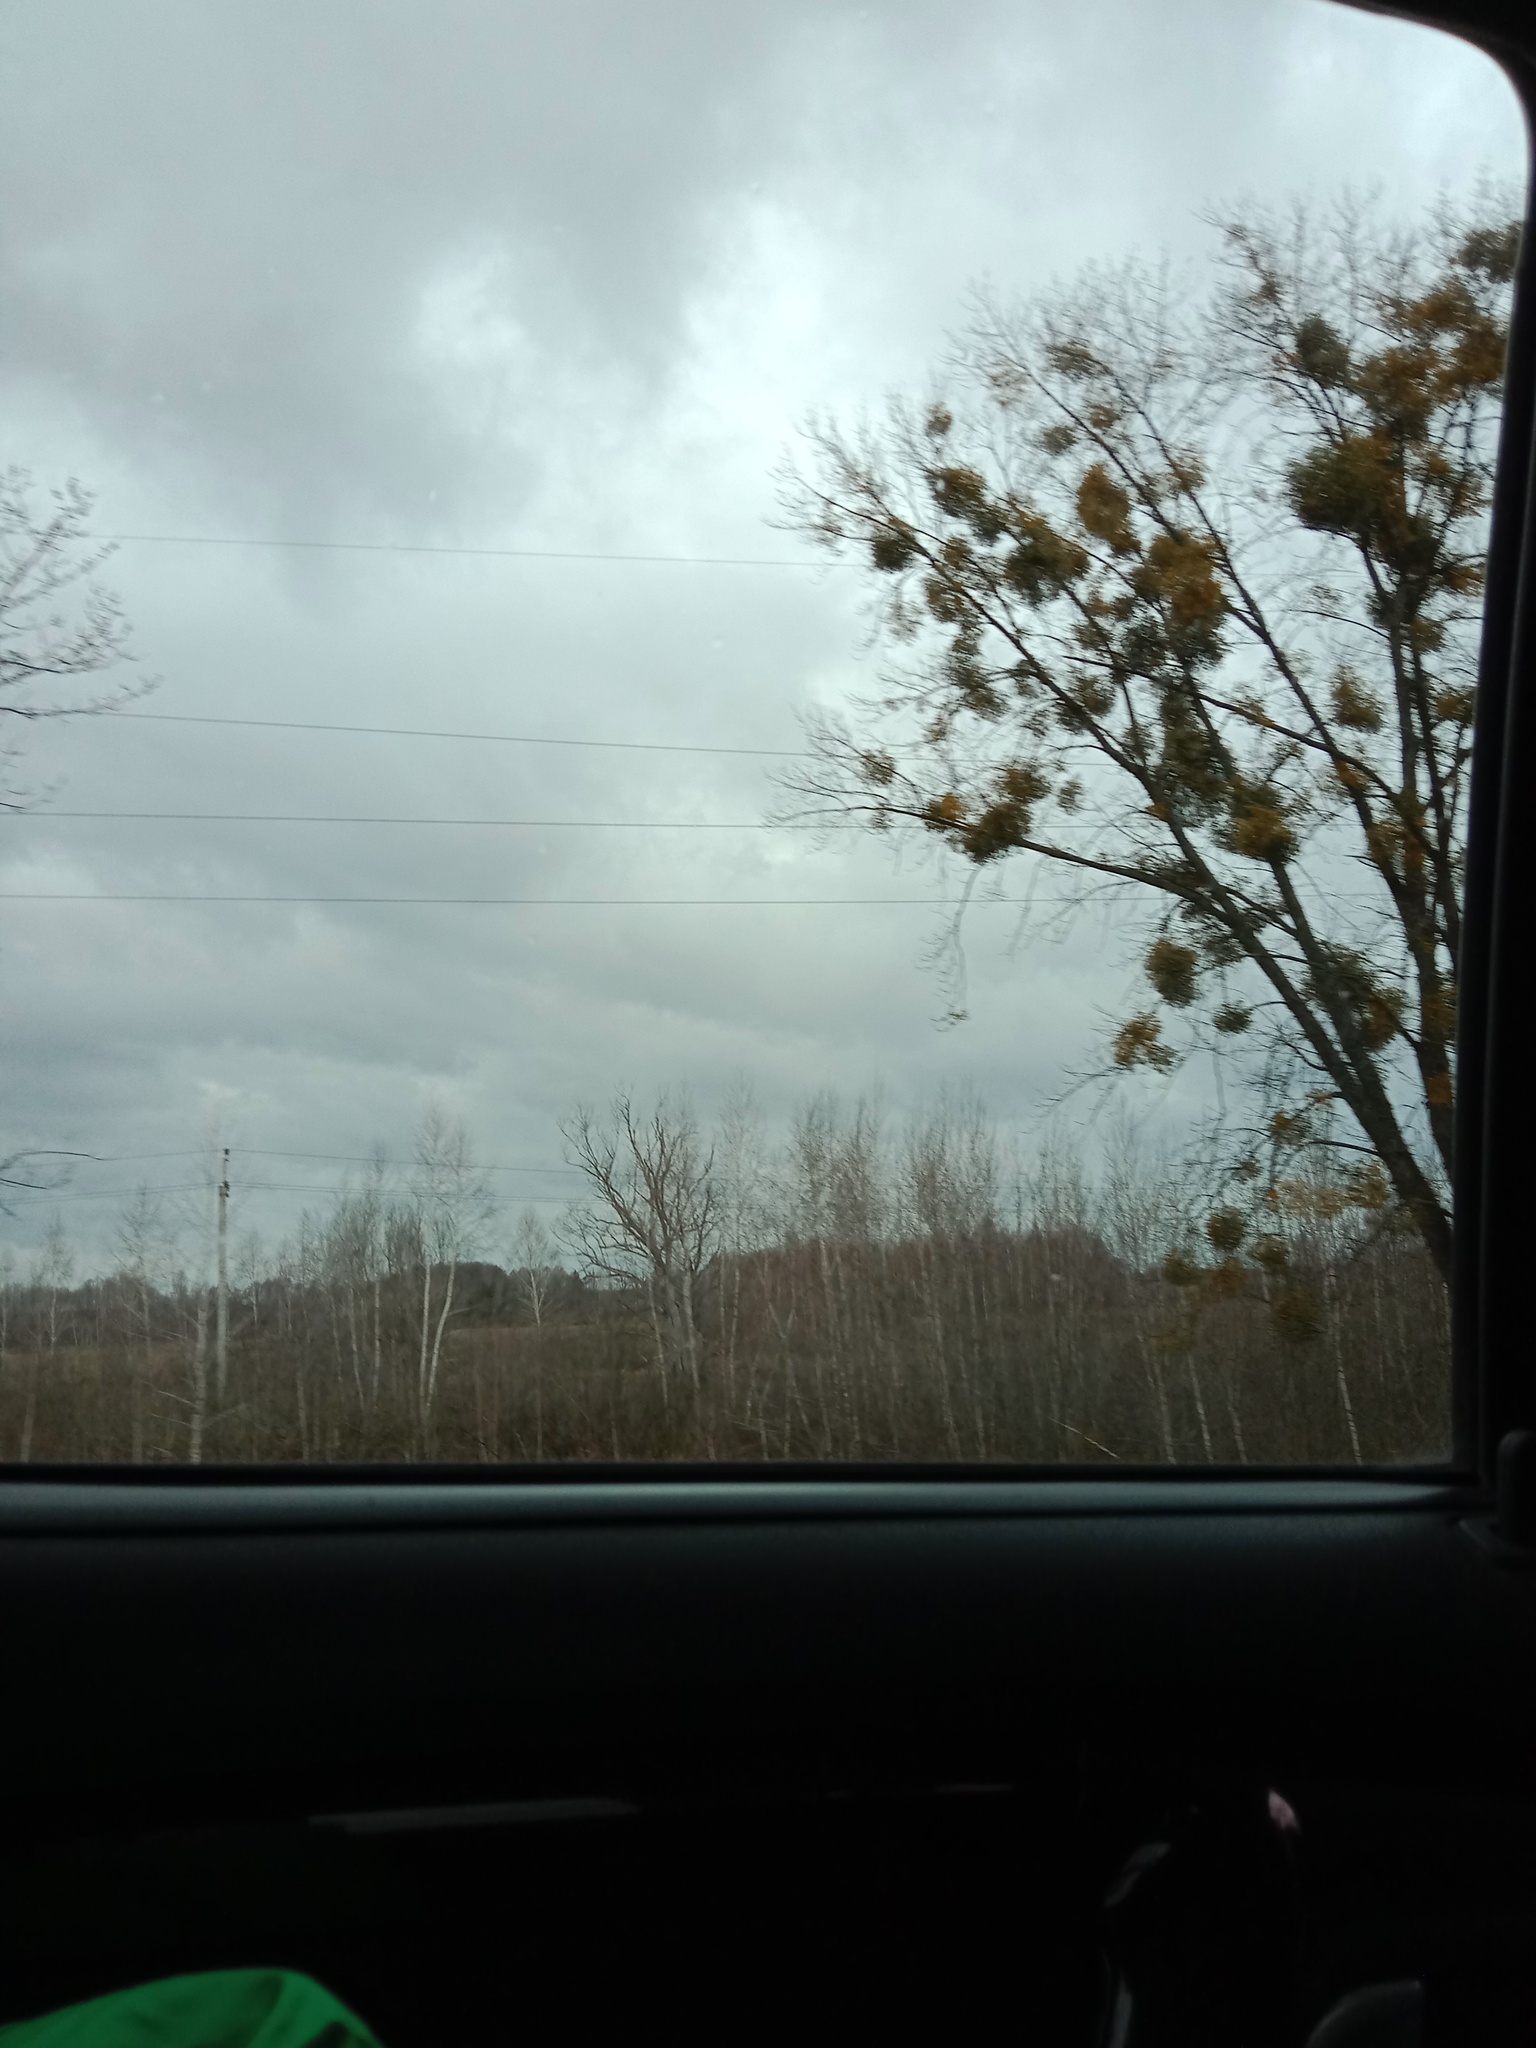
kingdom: Plantae
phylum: Tracheophyta
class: Magnoliopsida
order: Santalales
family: Viscaceae
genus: Viscum
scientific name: Viscum album
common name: Mistletoe
